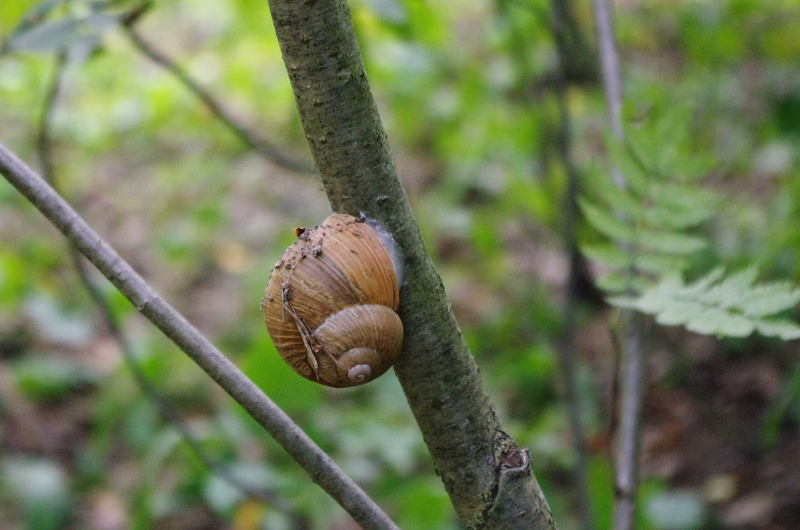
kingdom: Animalia
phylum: Mollusca
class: Gastropoda
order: Stylommatophora
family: Helicidae
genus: Helix
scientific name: Helix pomatia
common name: Roman snail
